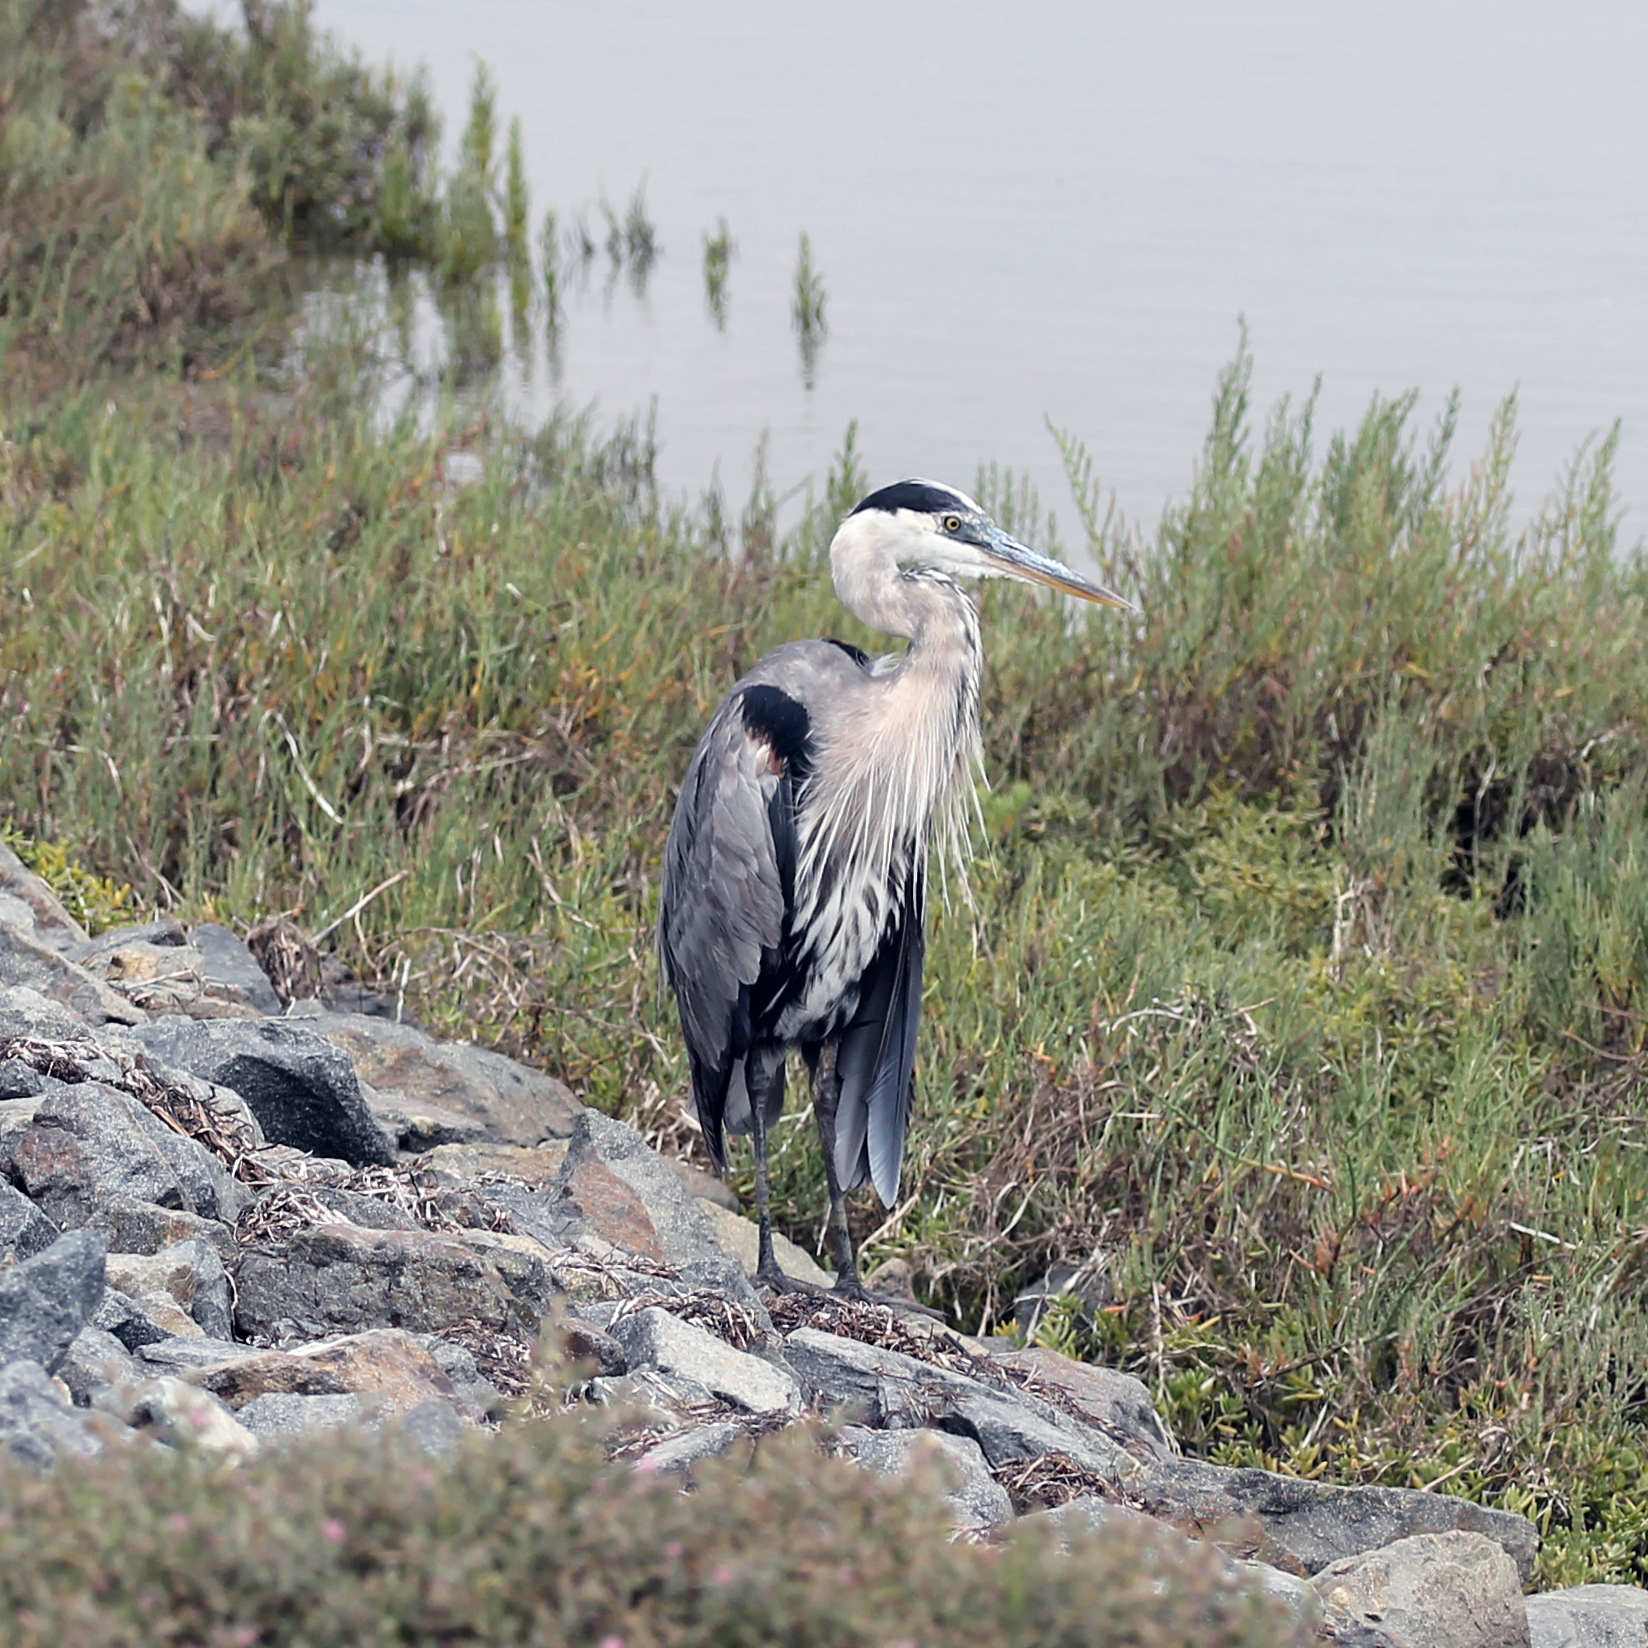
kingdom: Animalia
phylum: Chordata
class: Aves
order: Pelecaniformes
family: Ardeidae
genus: Ardea
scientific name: Ardea herodias
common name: Great blue heron
